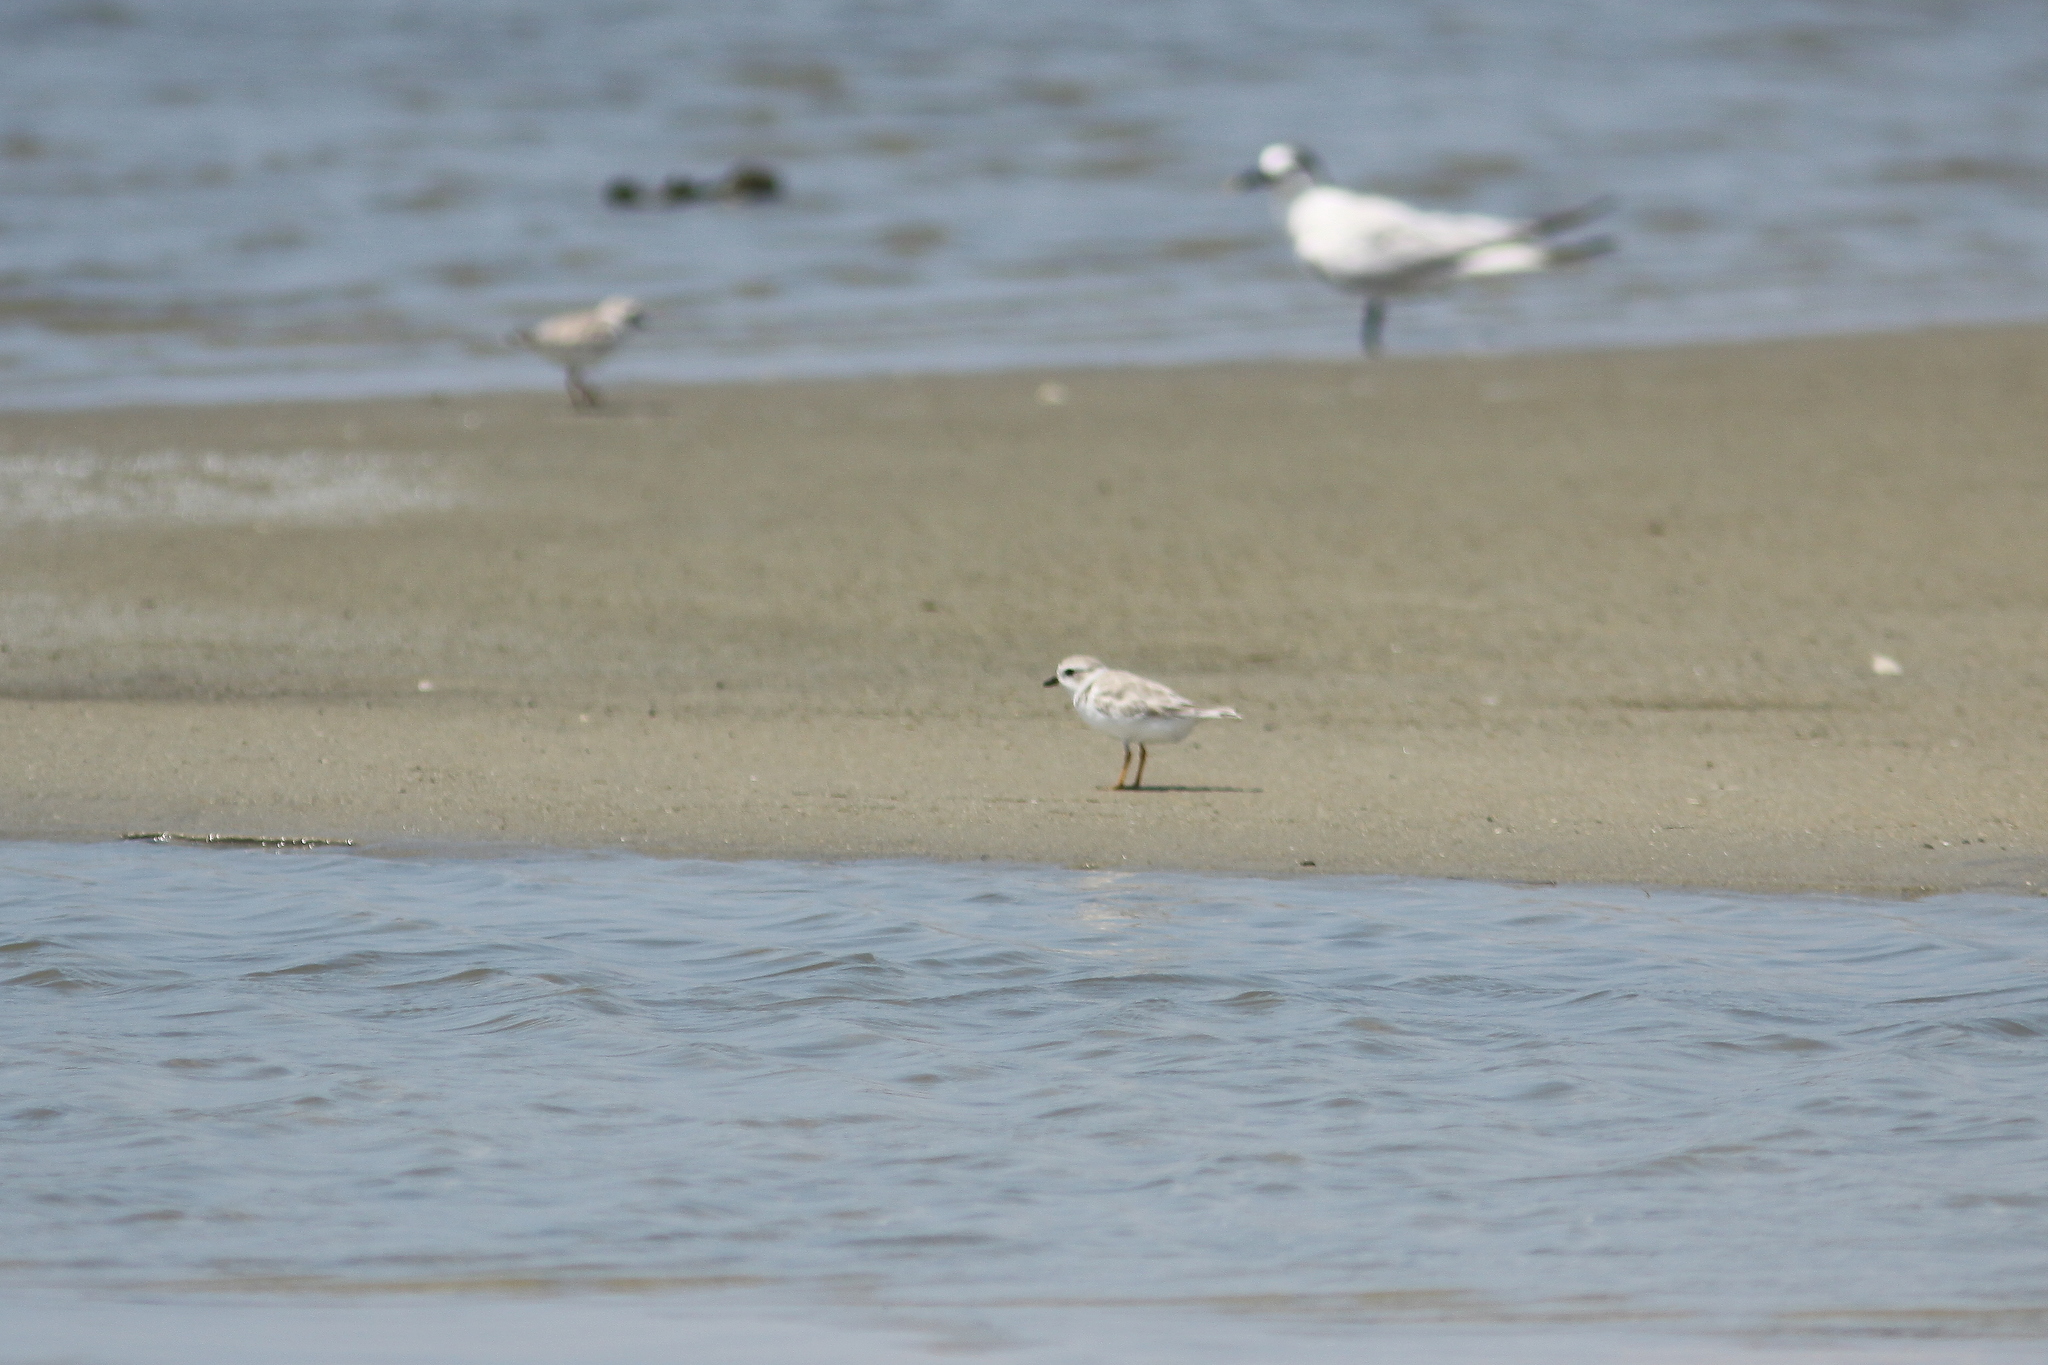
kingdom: Animalia
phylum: Chordata
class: Aves
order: Charadriiformes
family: Charadriidae
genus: Charadrius
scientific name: Charadrius melodus
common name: Piping plover
